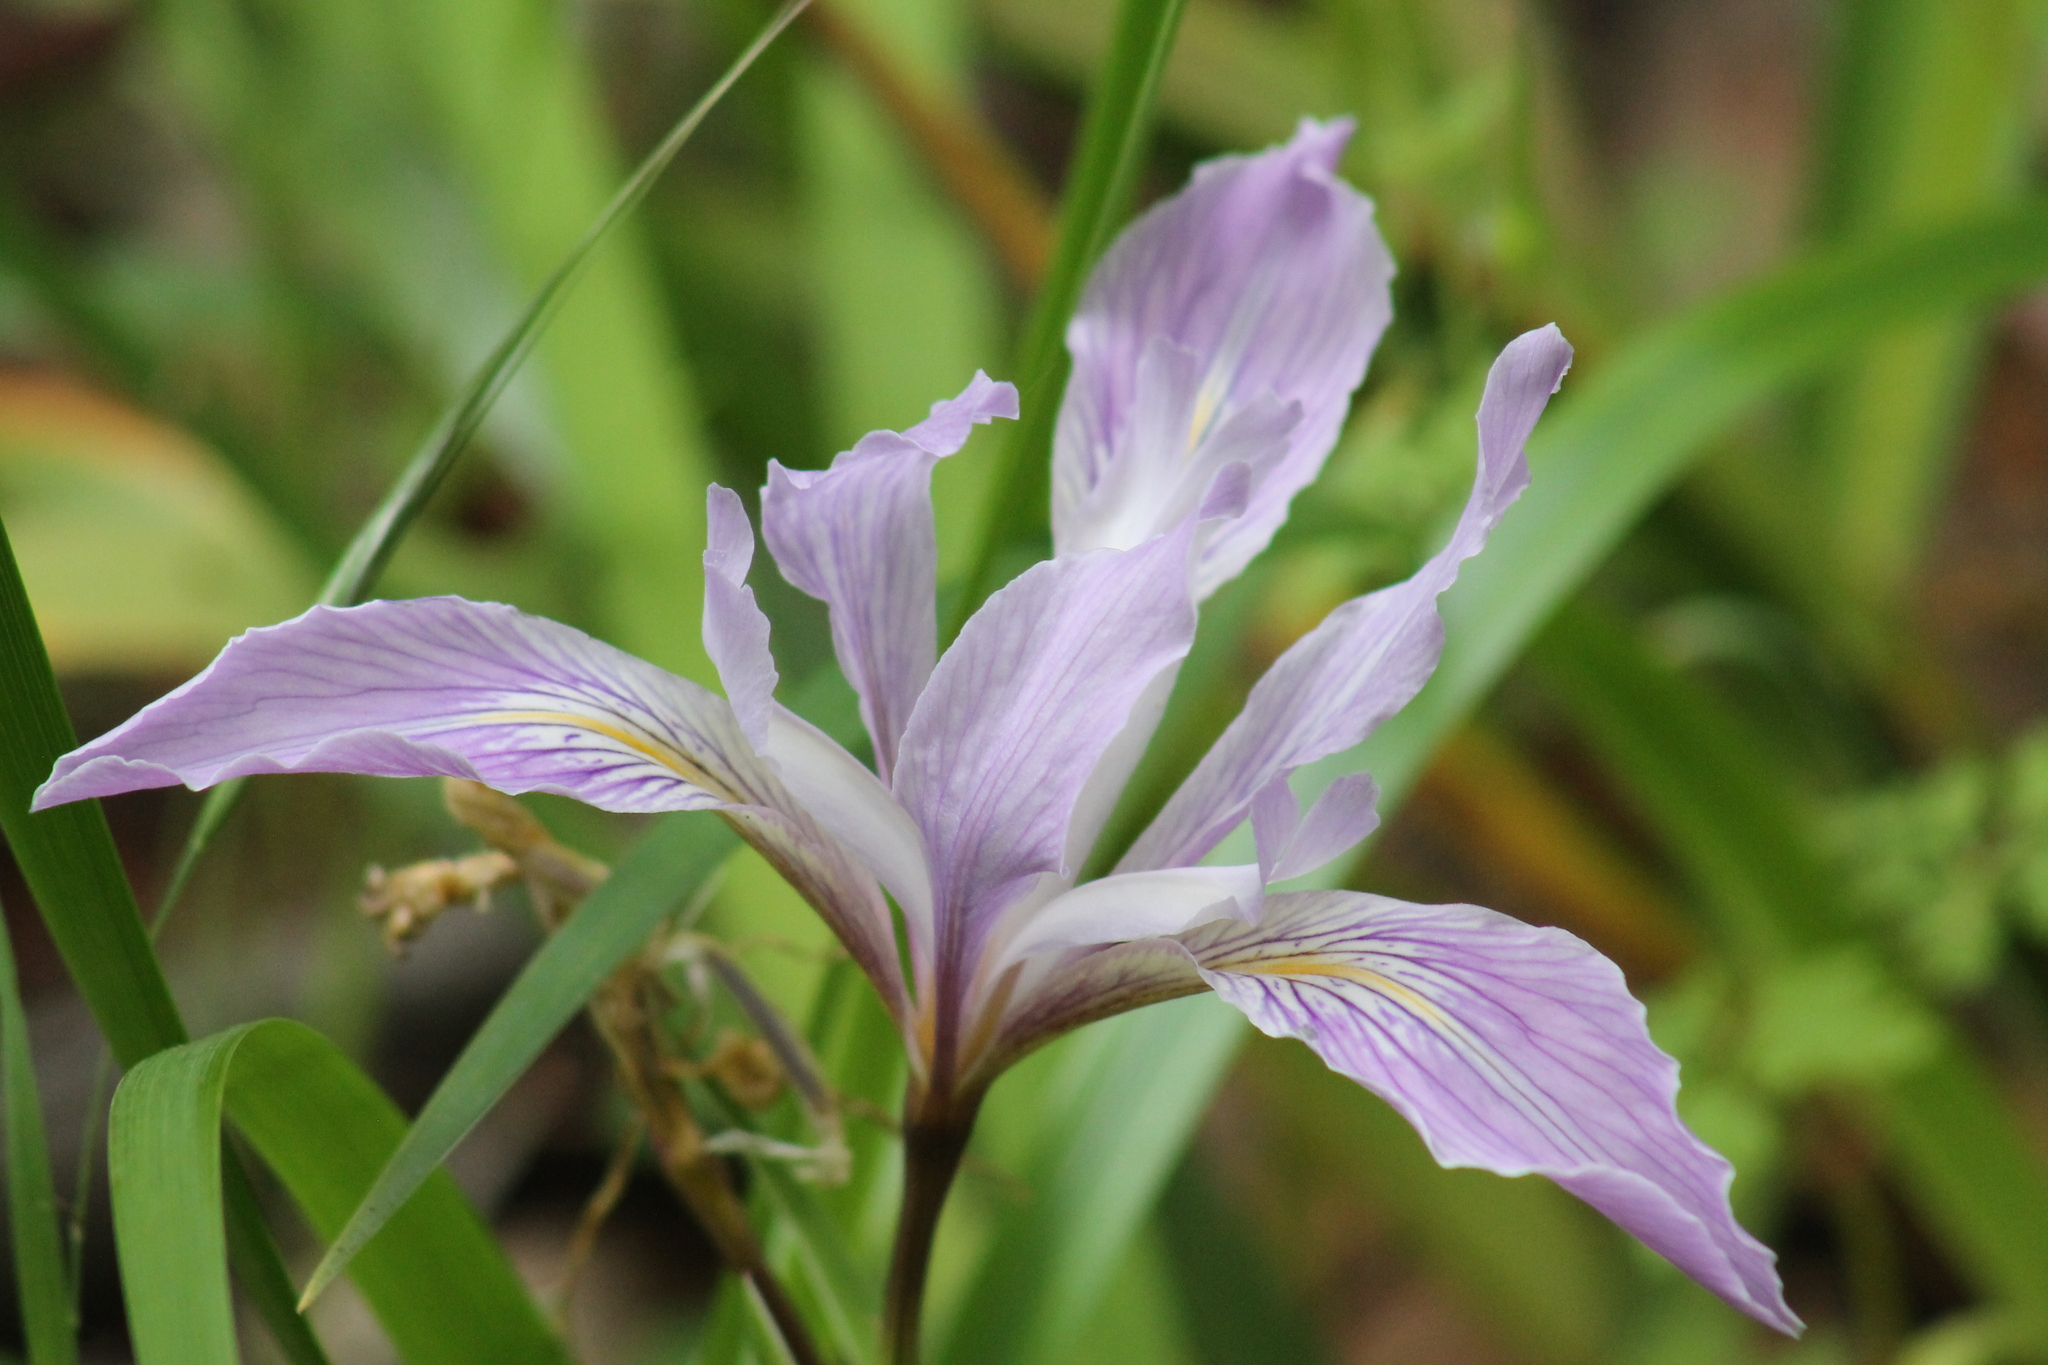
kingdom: Plantae
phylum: Tracheophyta
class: Liliopsida
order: Asparagales
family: Iridaceae
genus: Iris
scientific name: Iris douglasiana
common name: Marin iris
